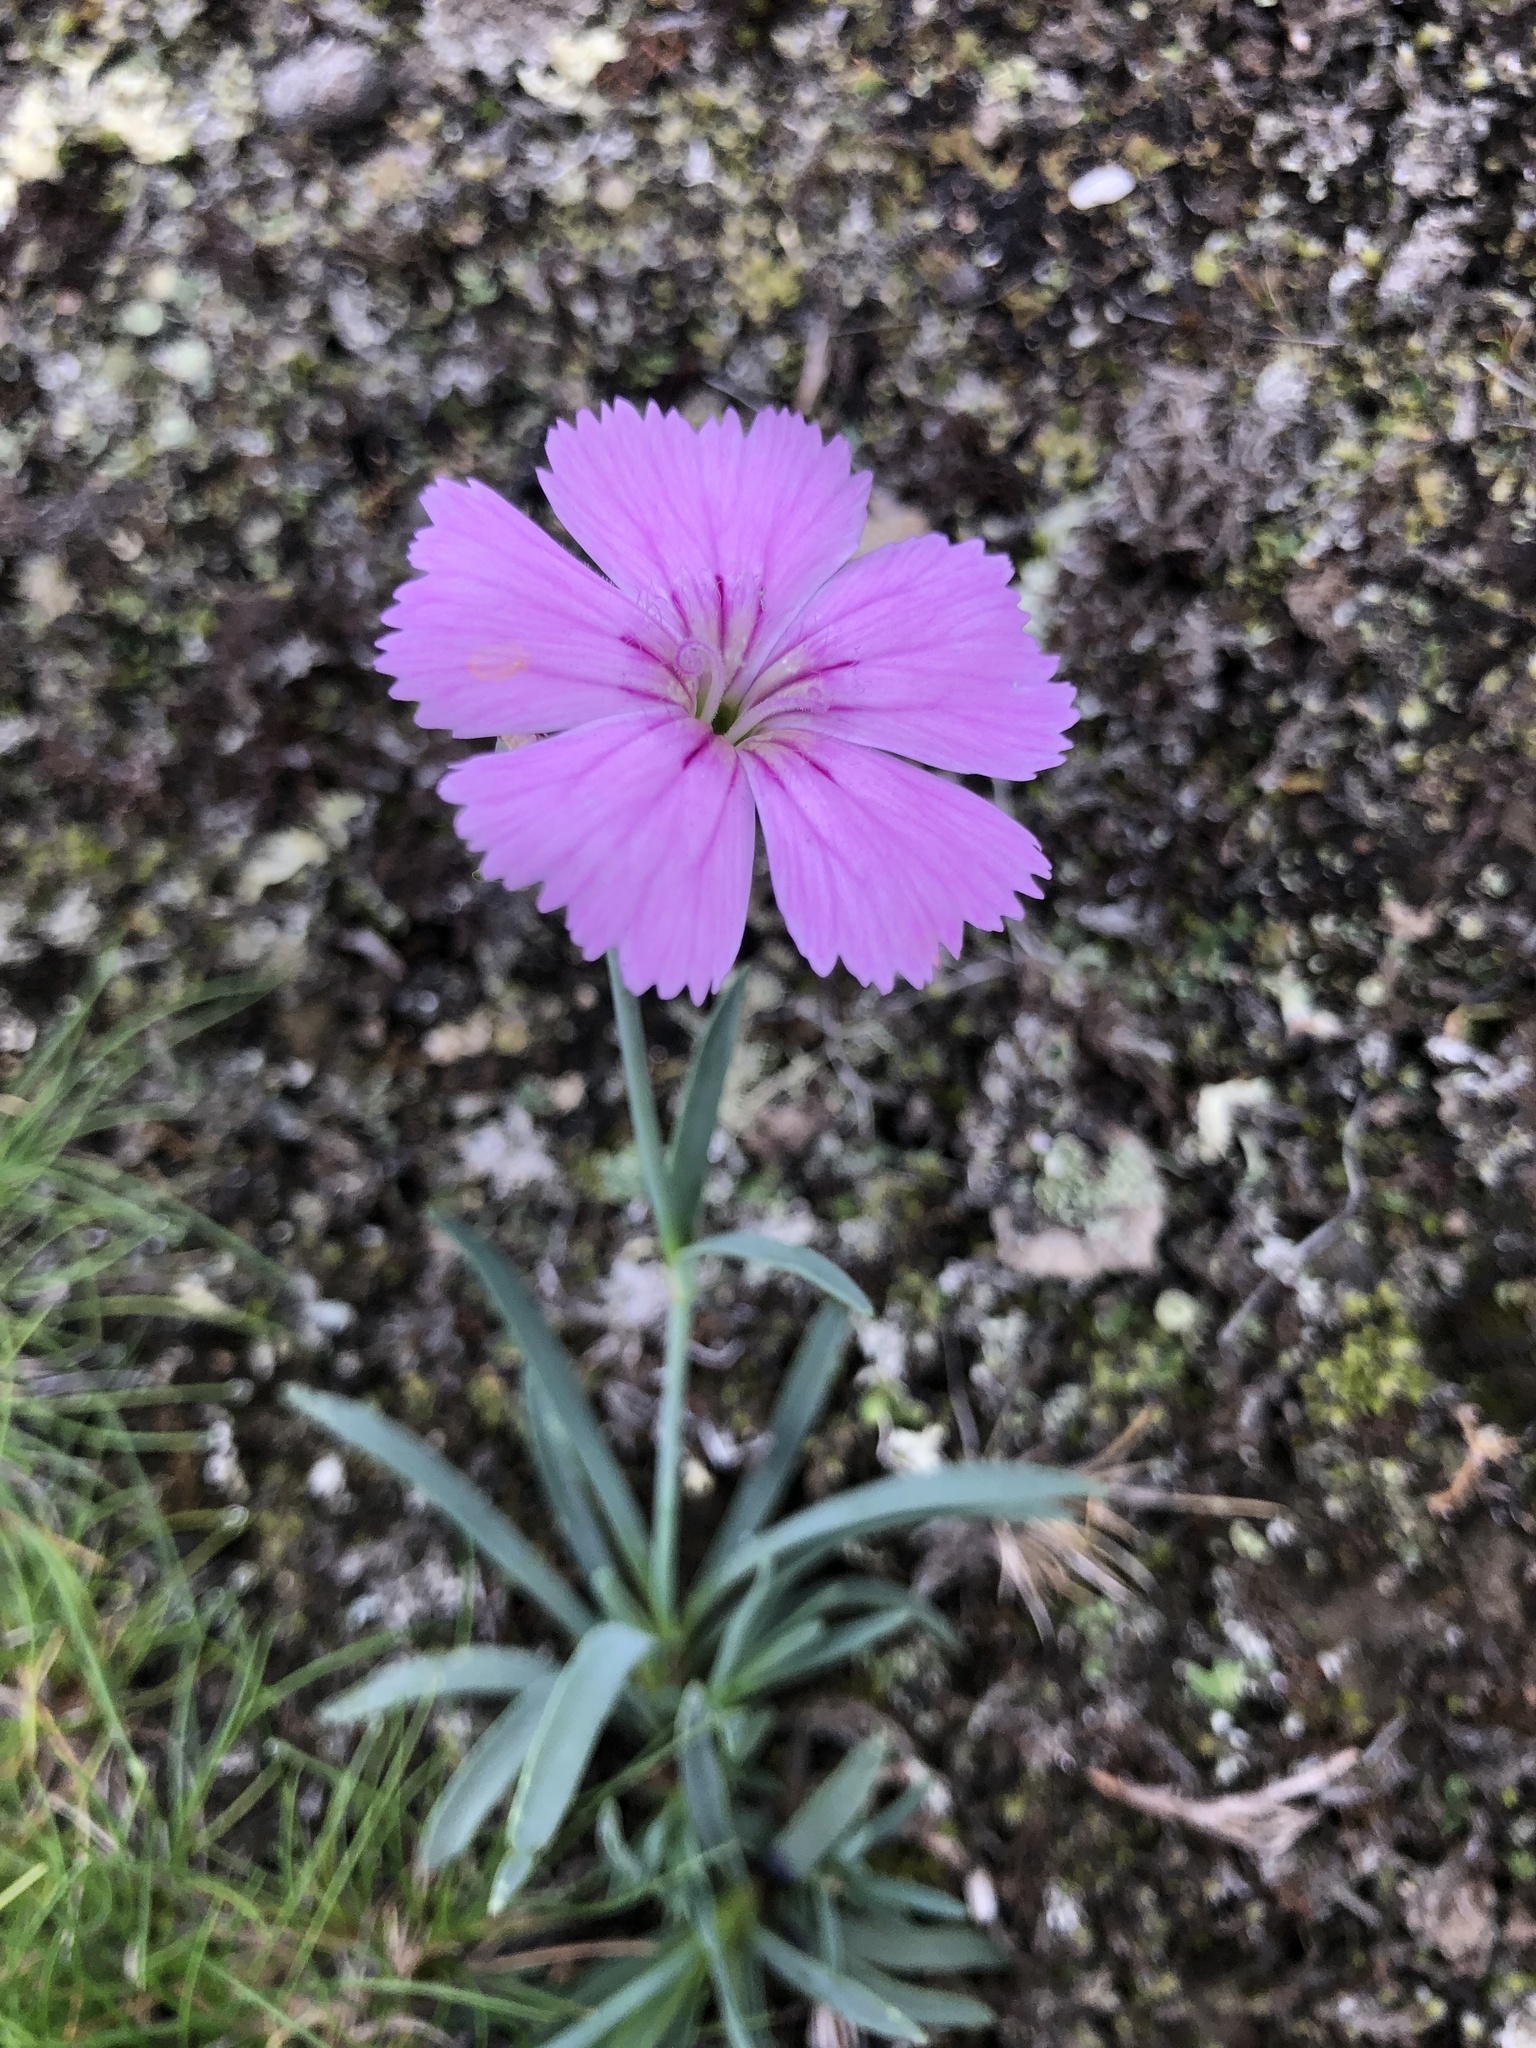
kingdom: Plantae
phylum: Tracheophyta
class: Magnoliopsida
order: Caryophyllales
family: Caryophyllaceae
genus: Dianthus
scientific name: Dianthus repens
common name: Northern pink
